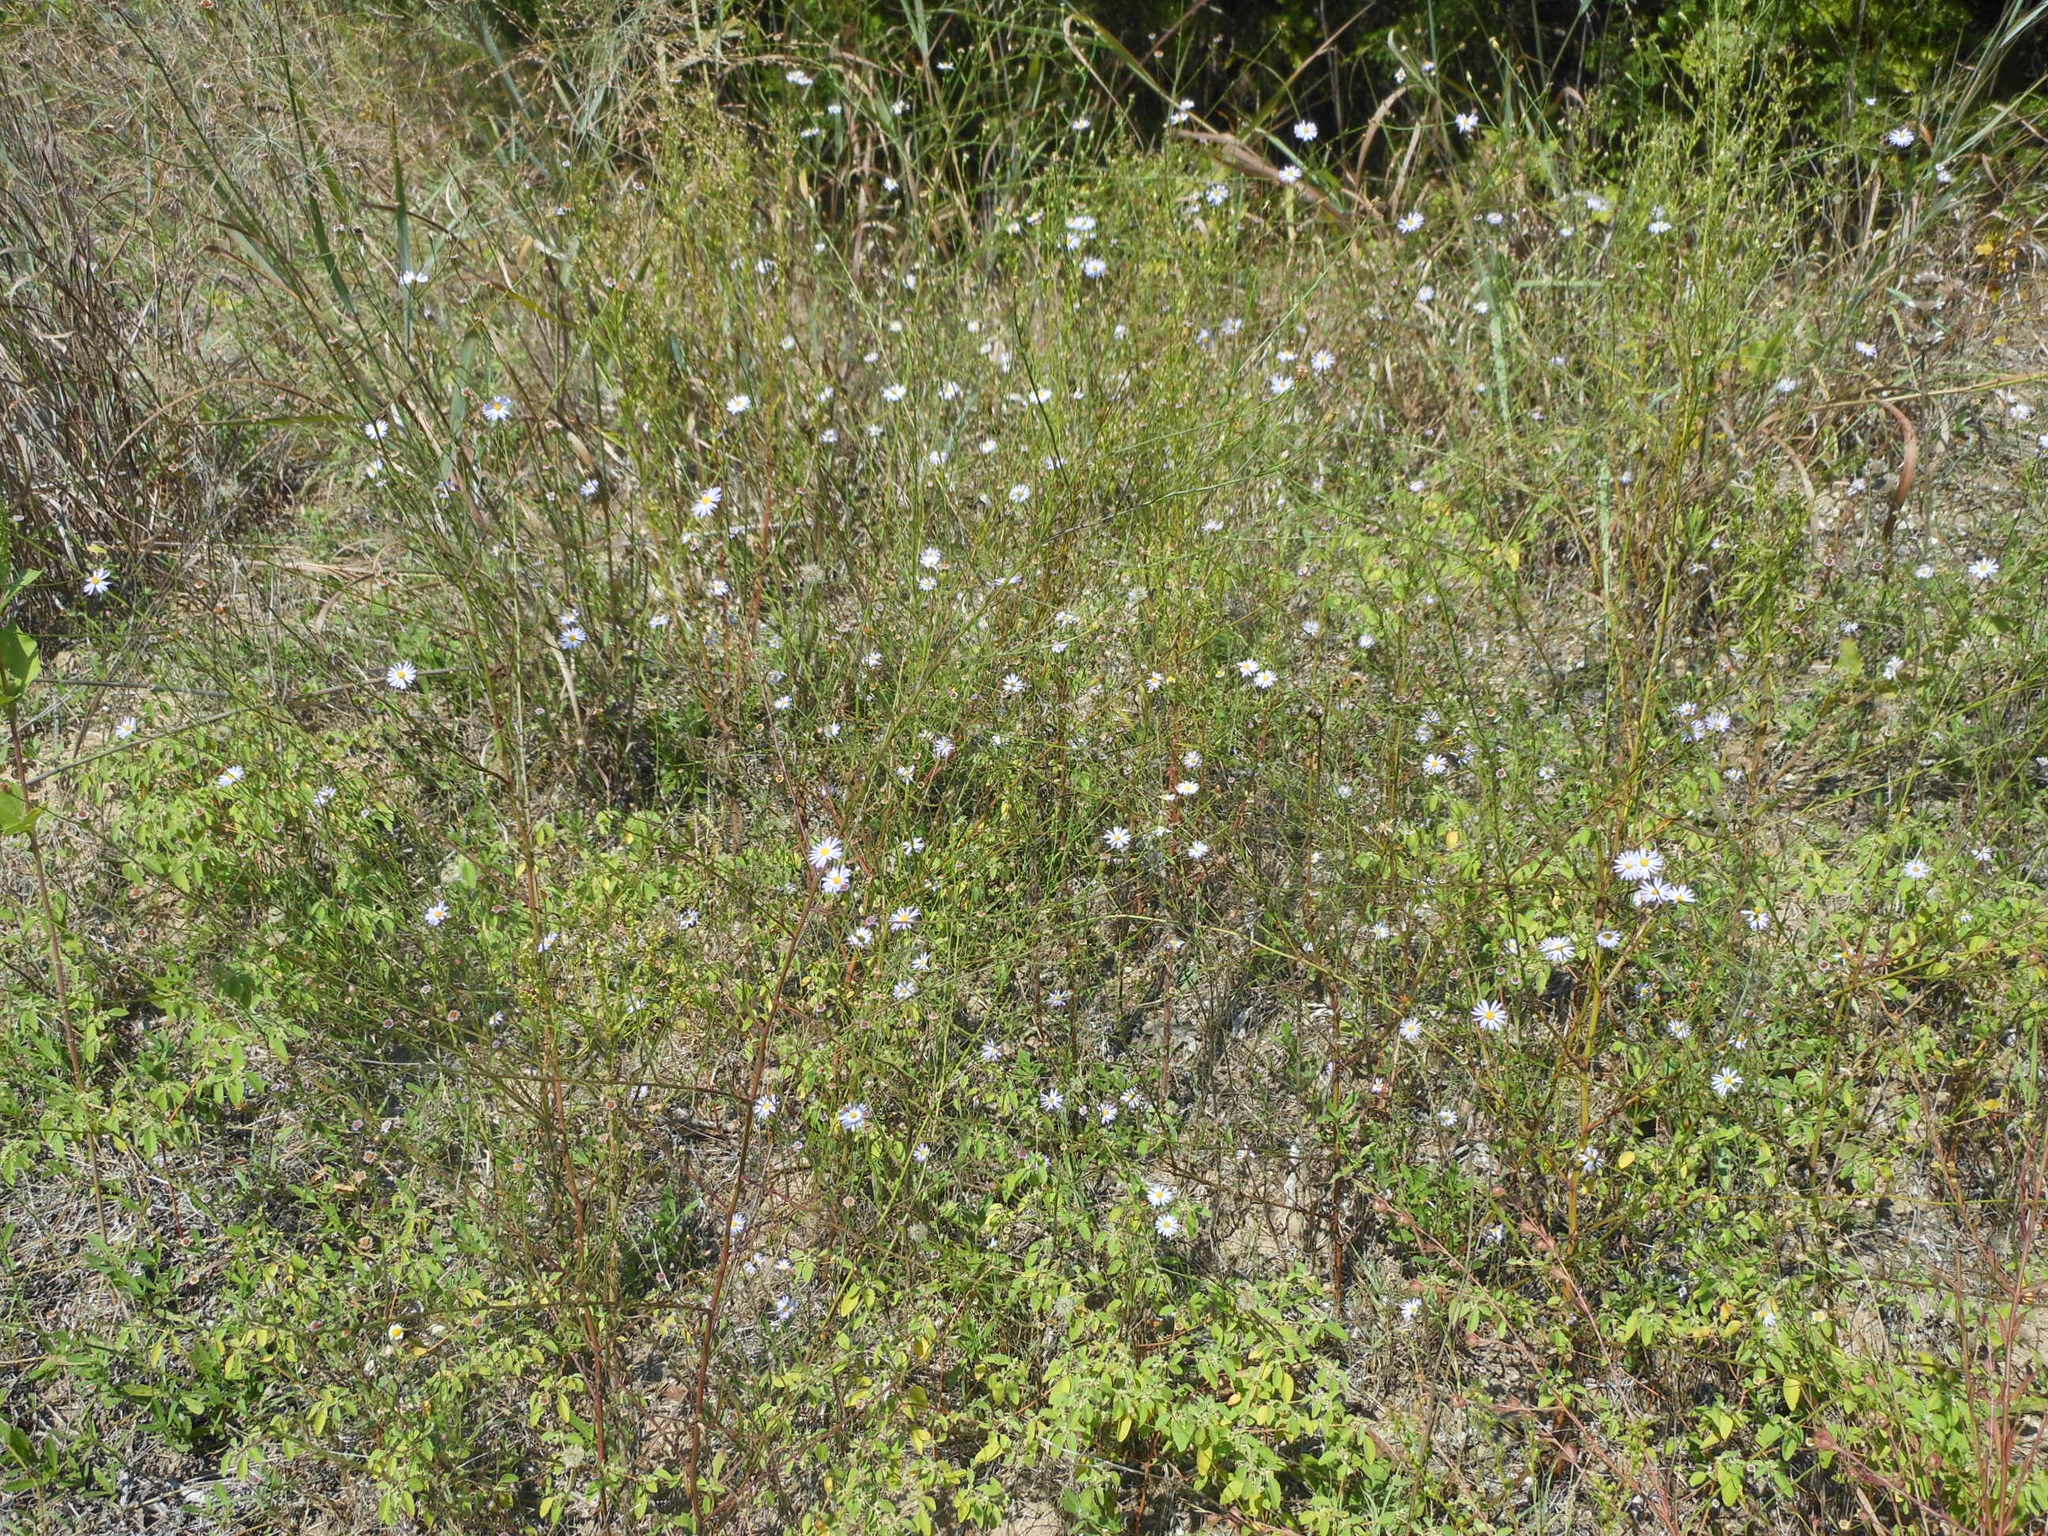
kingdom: Plantae
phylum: Tracheophyta
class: Magnoliopsida
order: Asterales
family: Asteraceae
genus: Symphyotrichum
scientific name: Symphyotrichum divaricatum
